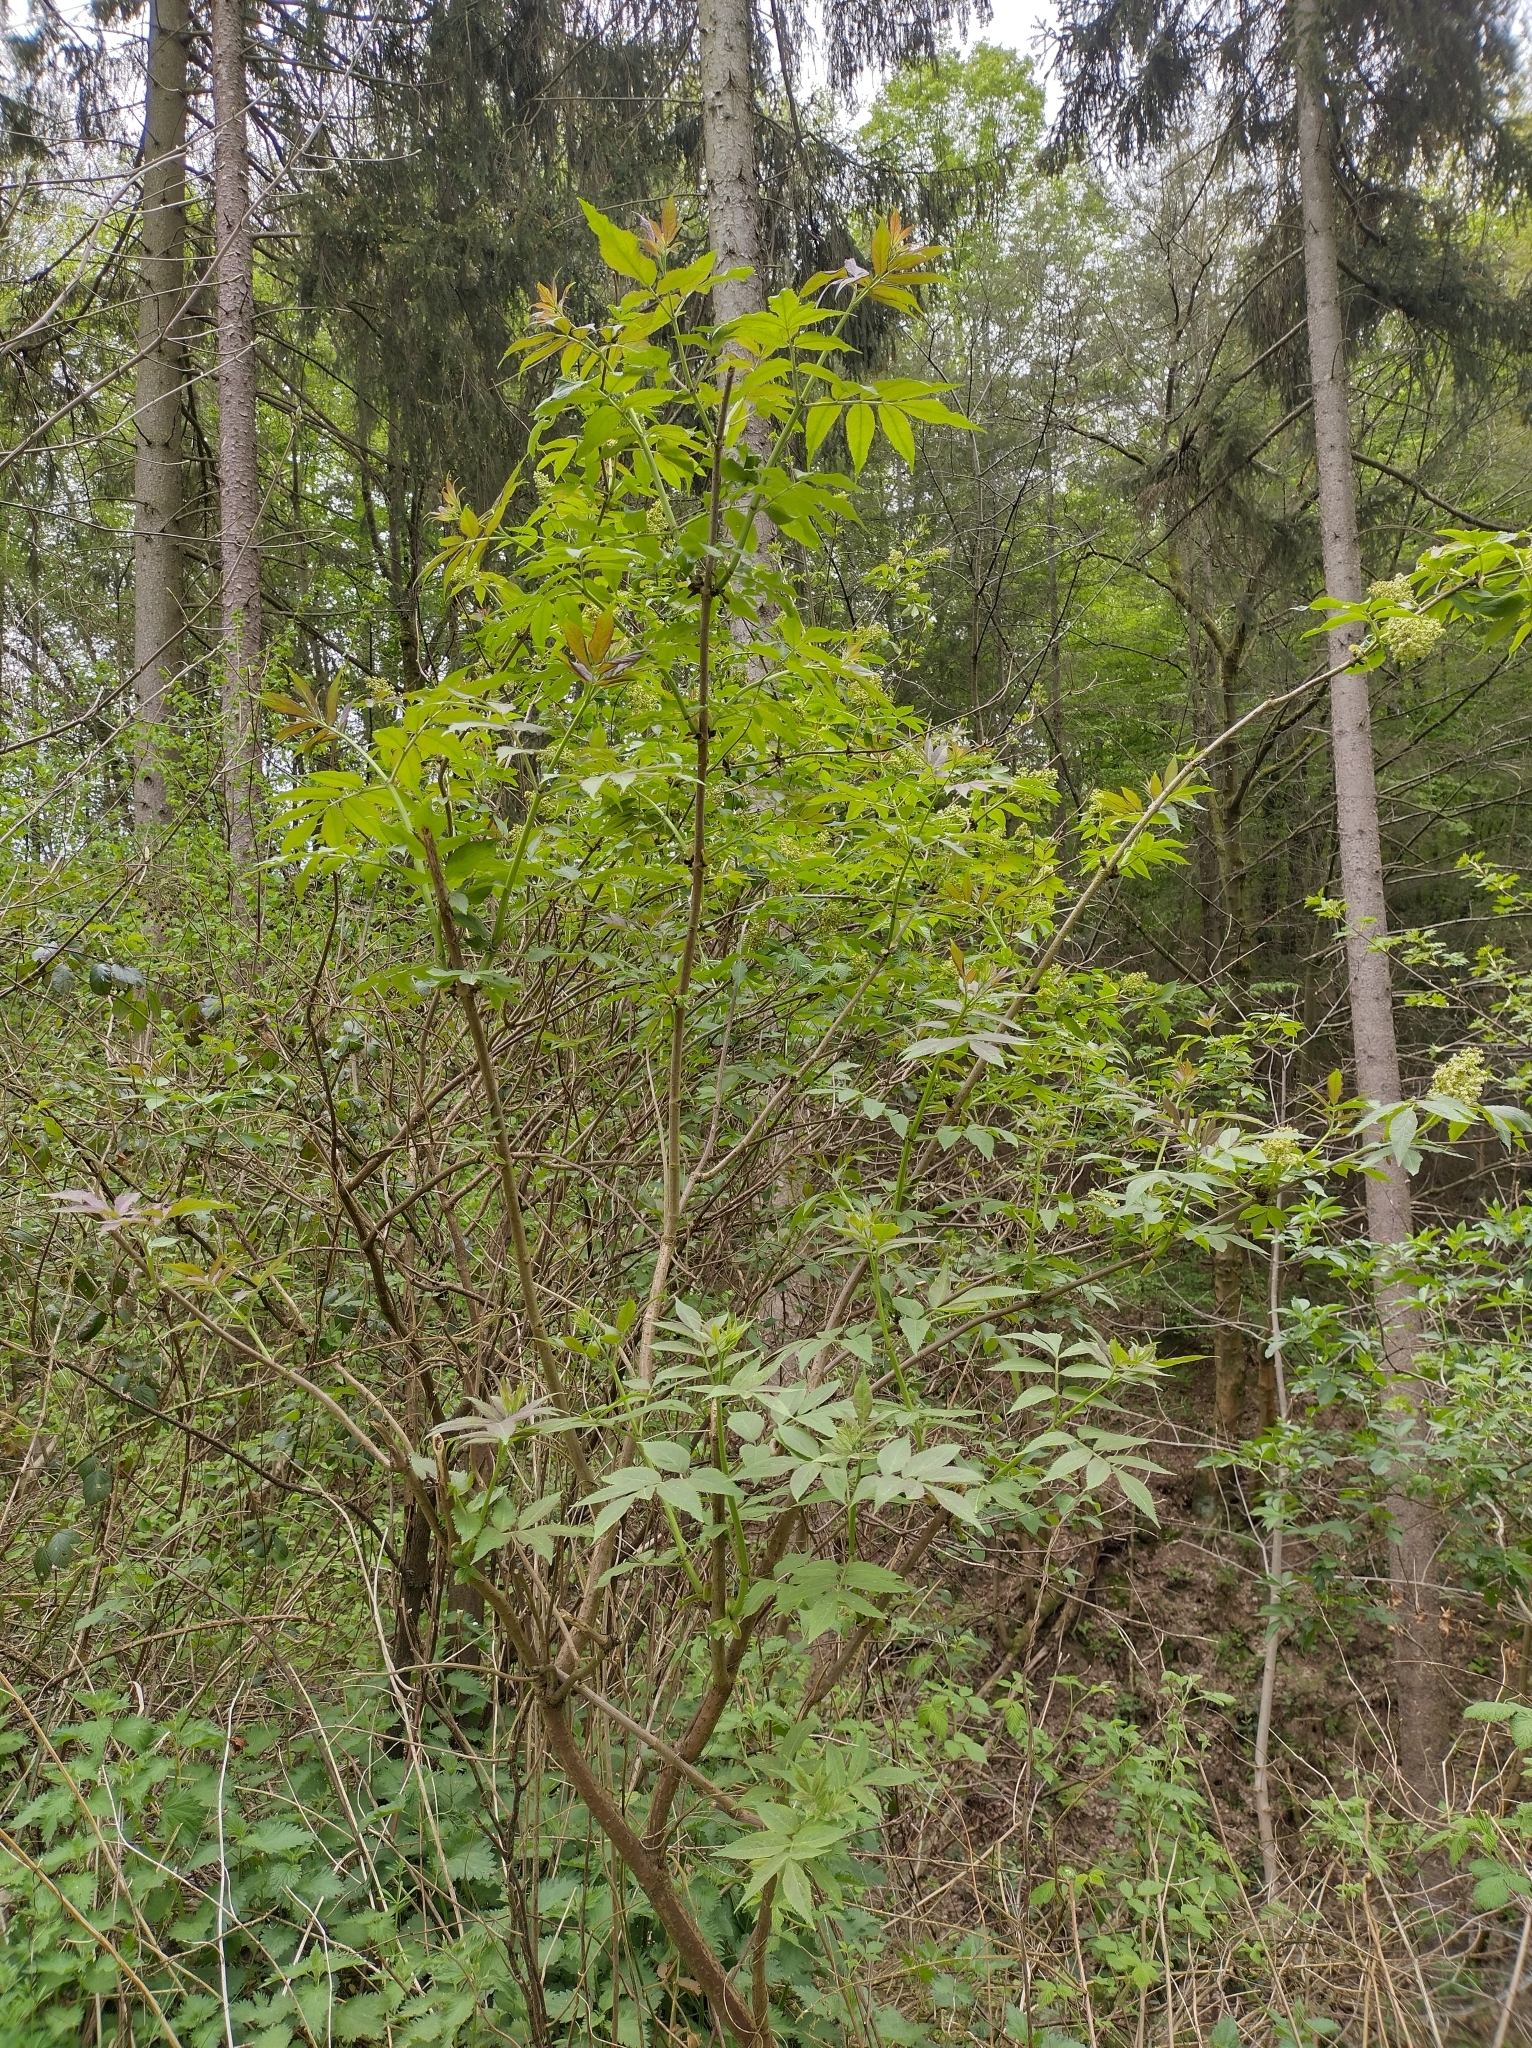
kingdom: Plantae
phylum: Tracheophyta
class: Magnoliopsida
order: Dipsacales
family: Viburnaceae
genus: Sambucus
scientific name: Sambucus racemosa
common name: Red-berried elder
